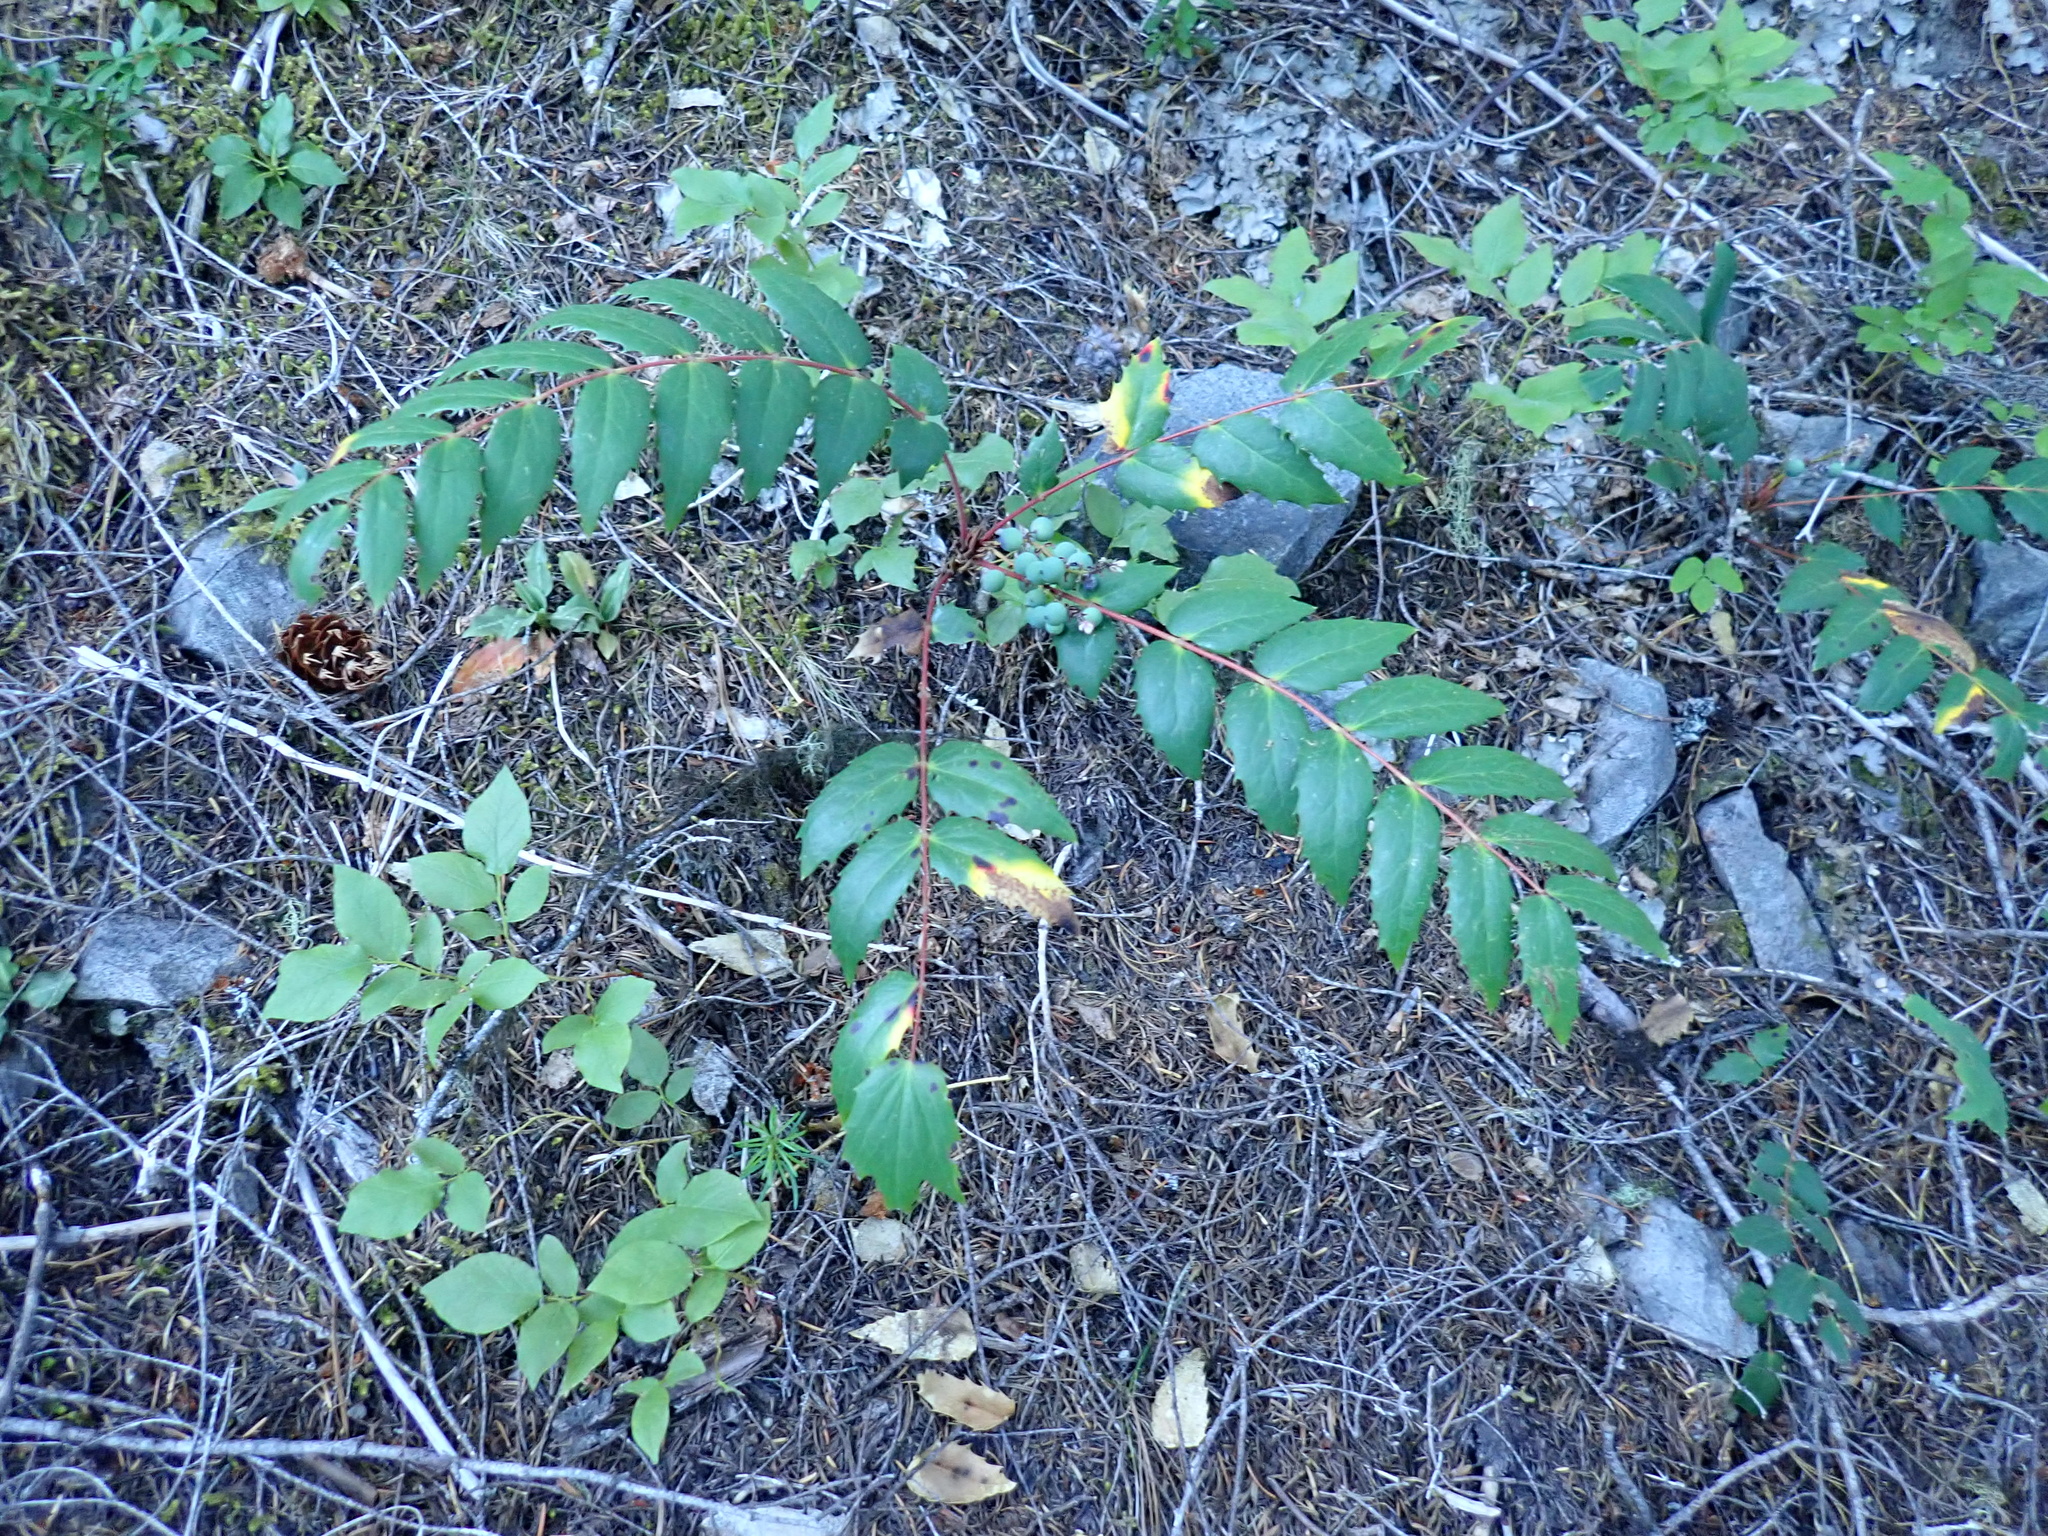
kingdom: Plantae
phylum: Tracheophyta
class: Magnoliopsida
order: Ranunculales
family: Berberidaceae
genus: Mahonia
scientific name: Mahonia nervosa
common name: Cascade oregon-grape
